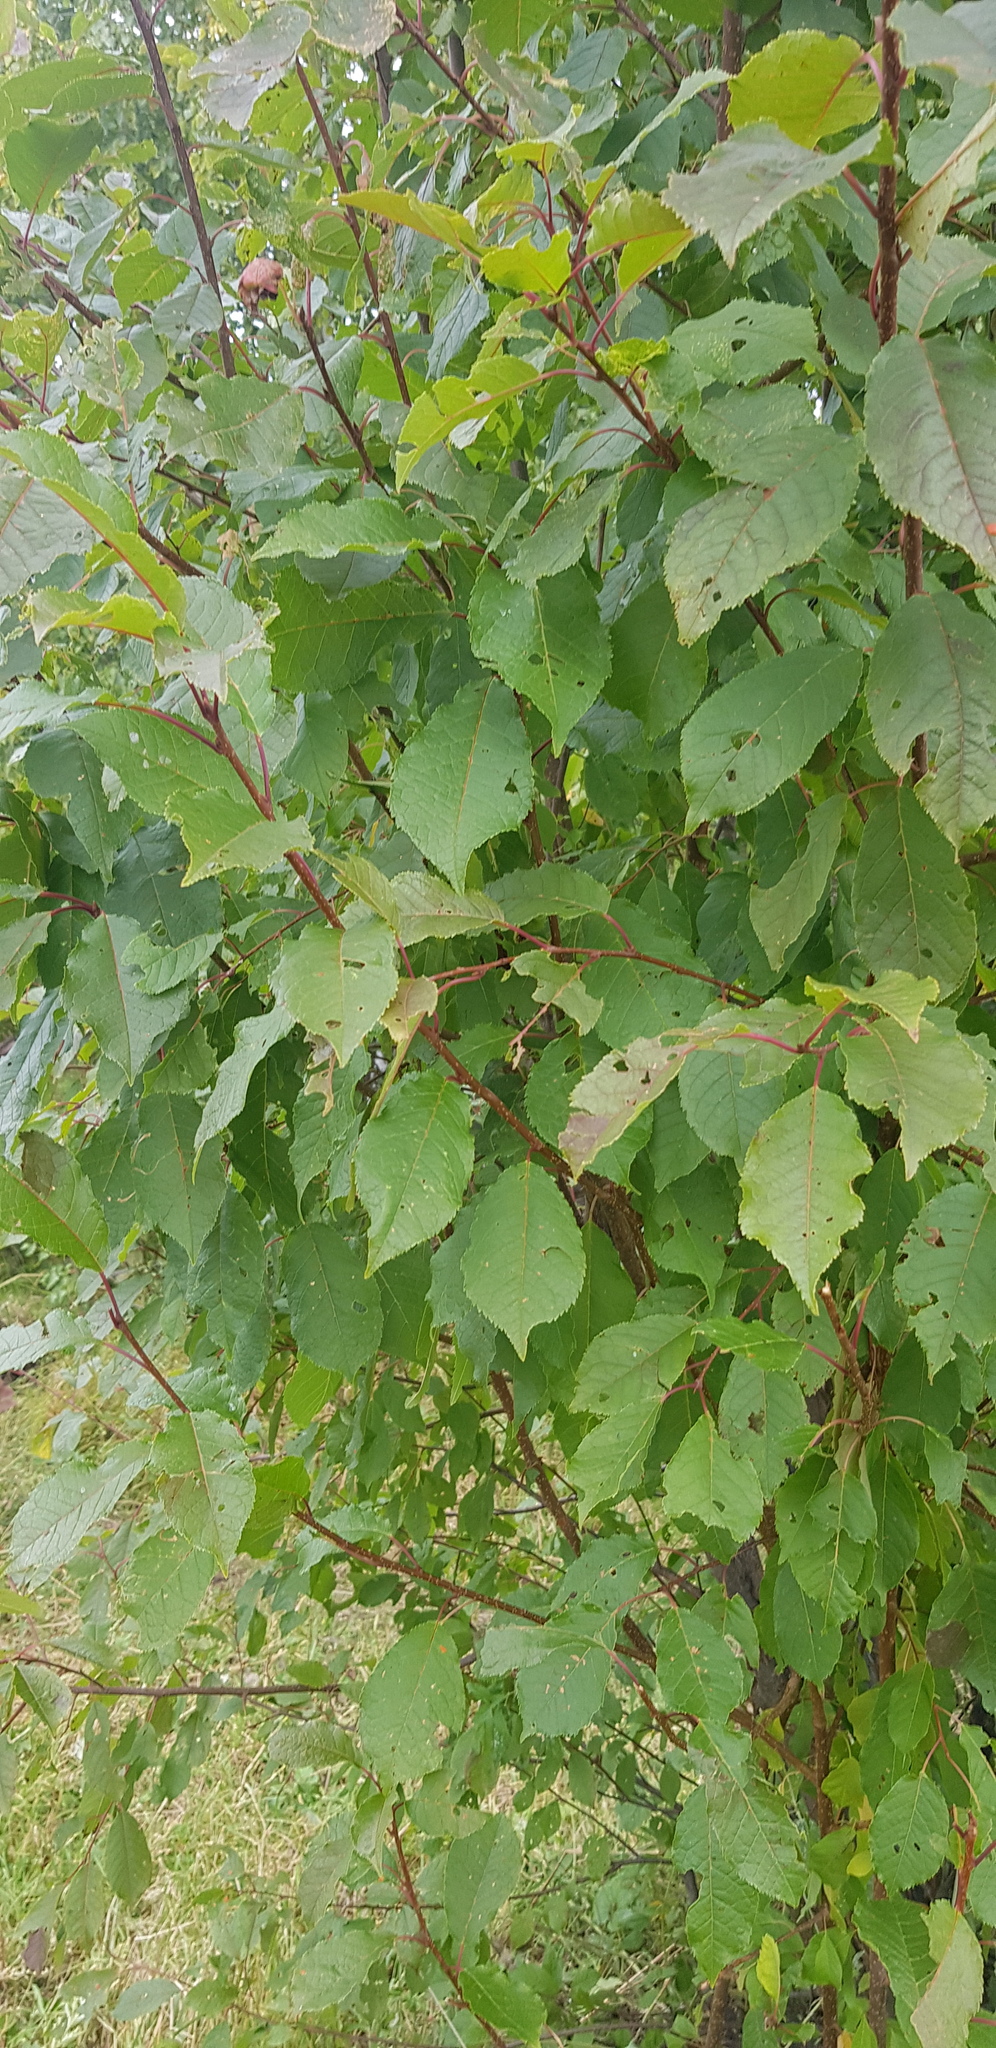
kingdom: Plantae
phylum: Tracheophyta
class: Magnoliopsida
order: Rosales
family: Ulmaceae
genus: Ulmus
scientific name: Ulmus davidiana
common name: Japanese elm
